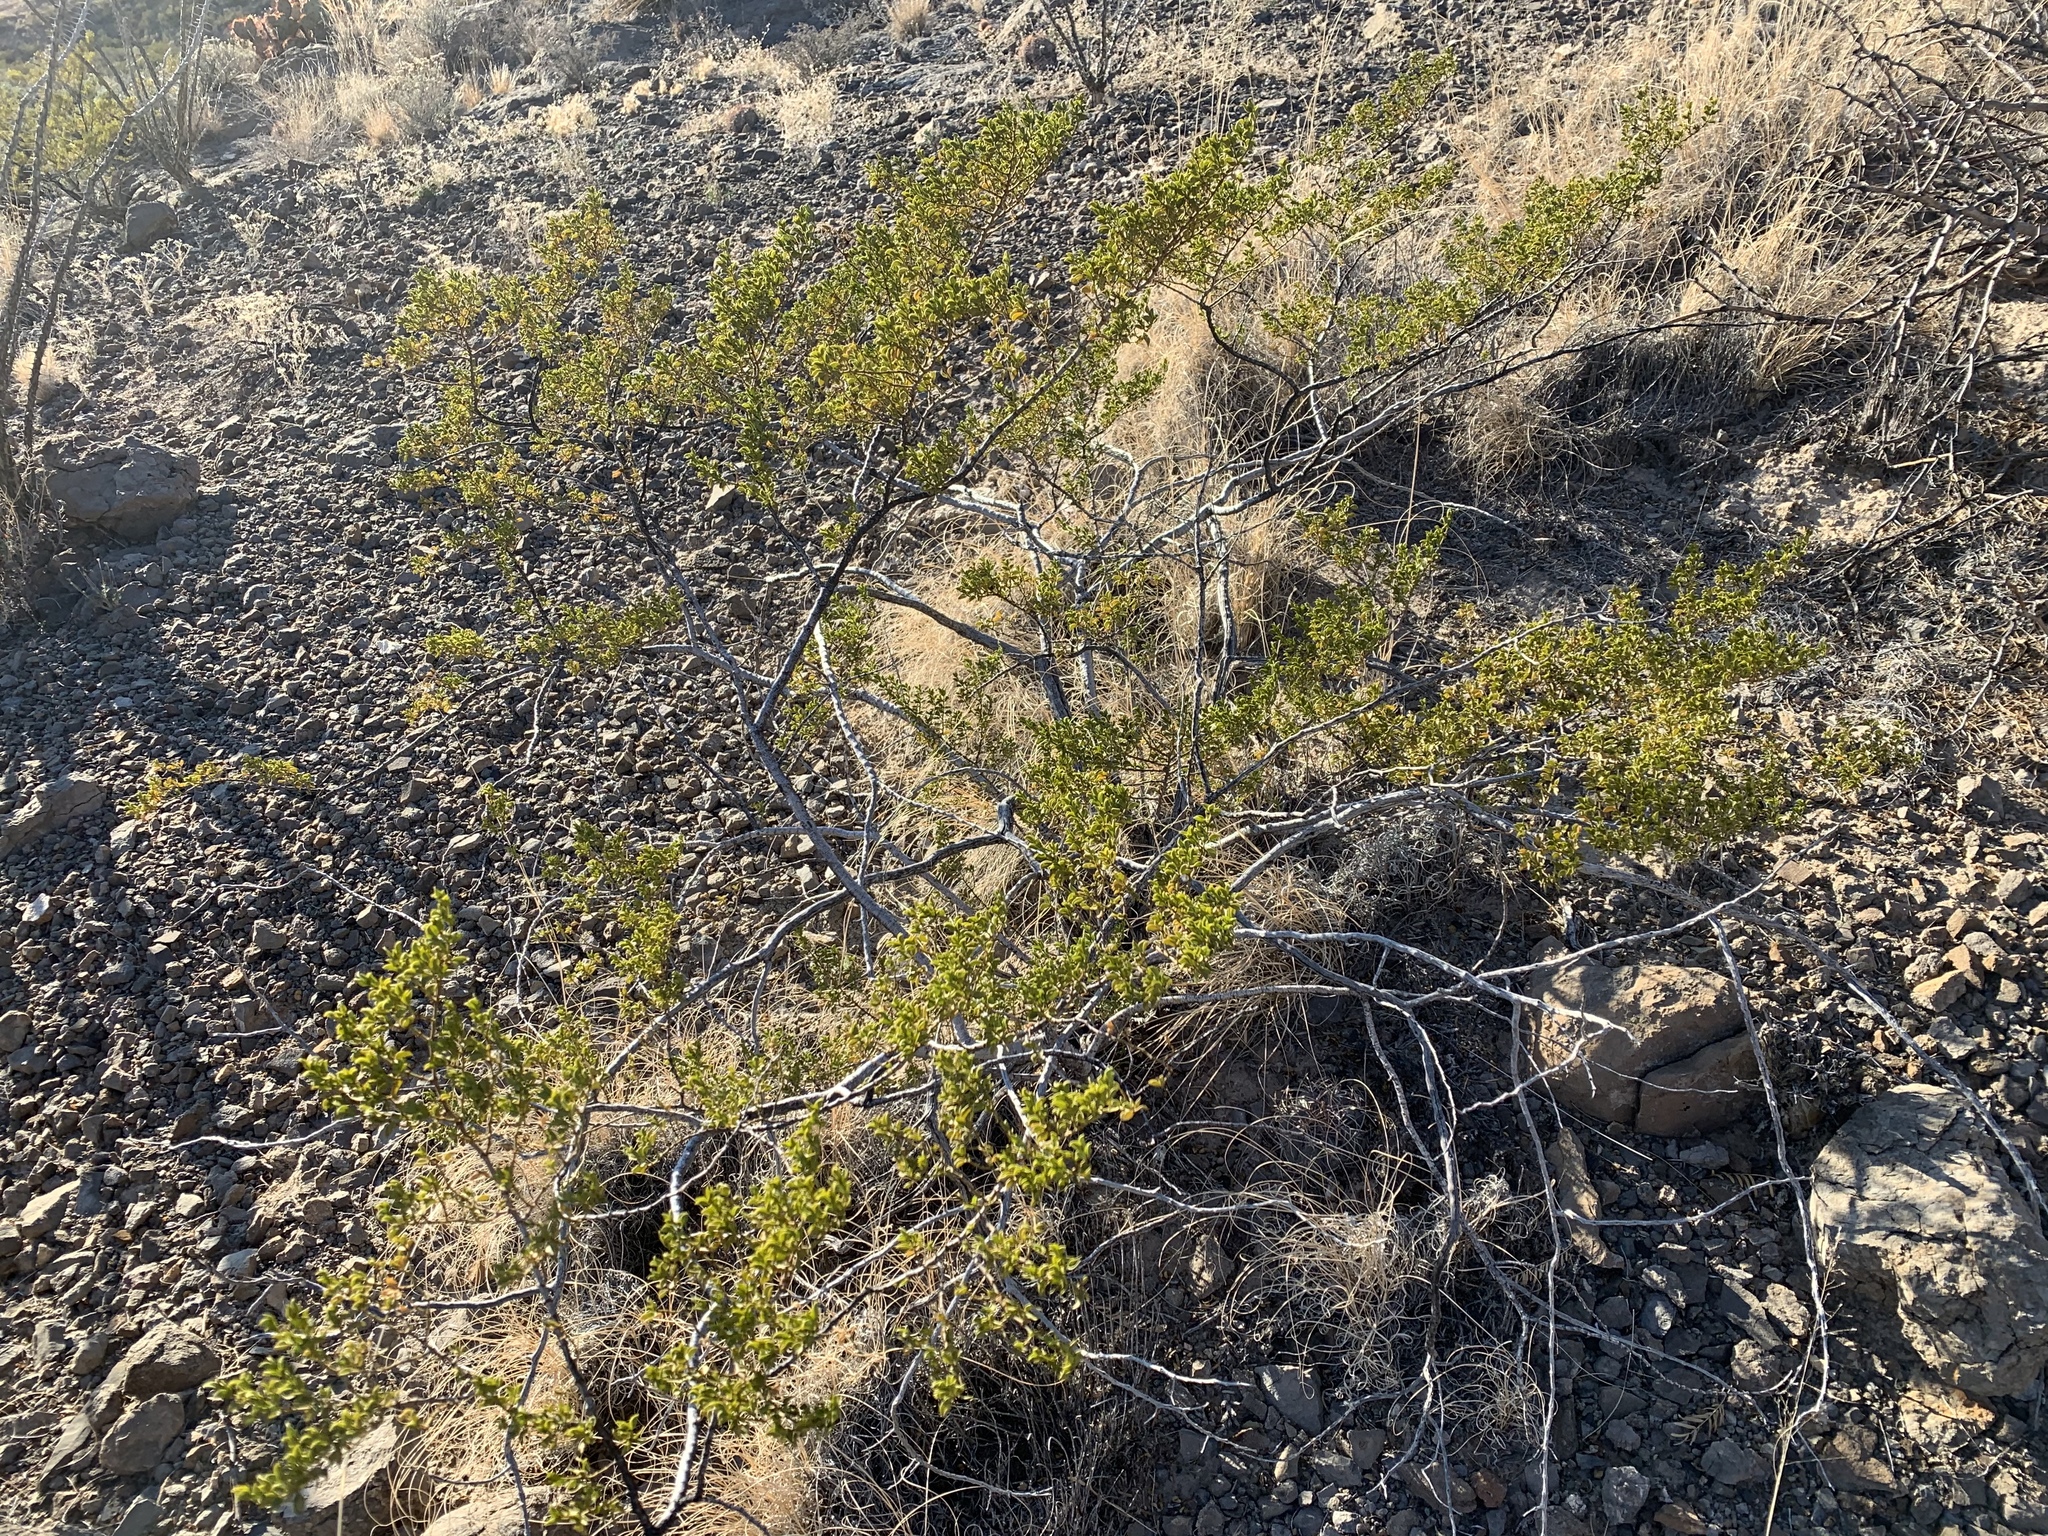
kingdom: Plantae
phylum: Tracheophyta
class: Magnoliopsida
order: Zygophyllales
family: Zygophyllaceae
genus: Larrea
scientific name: Larrea tridentata
